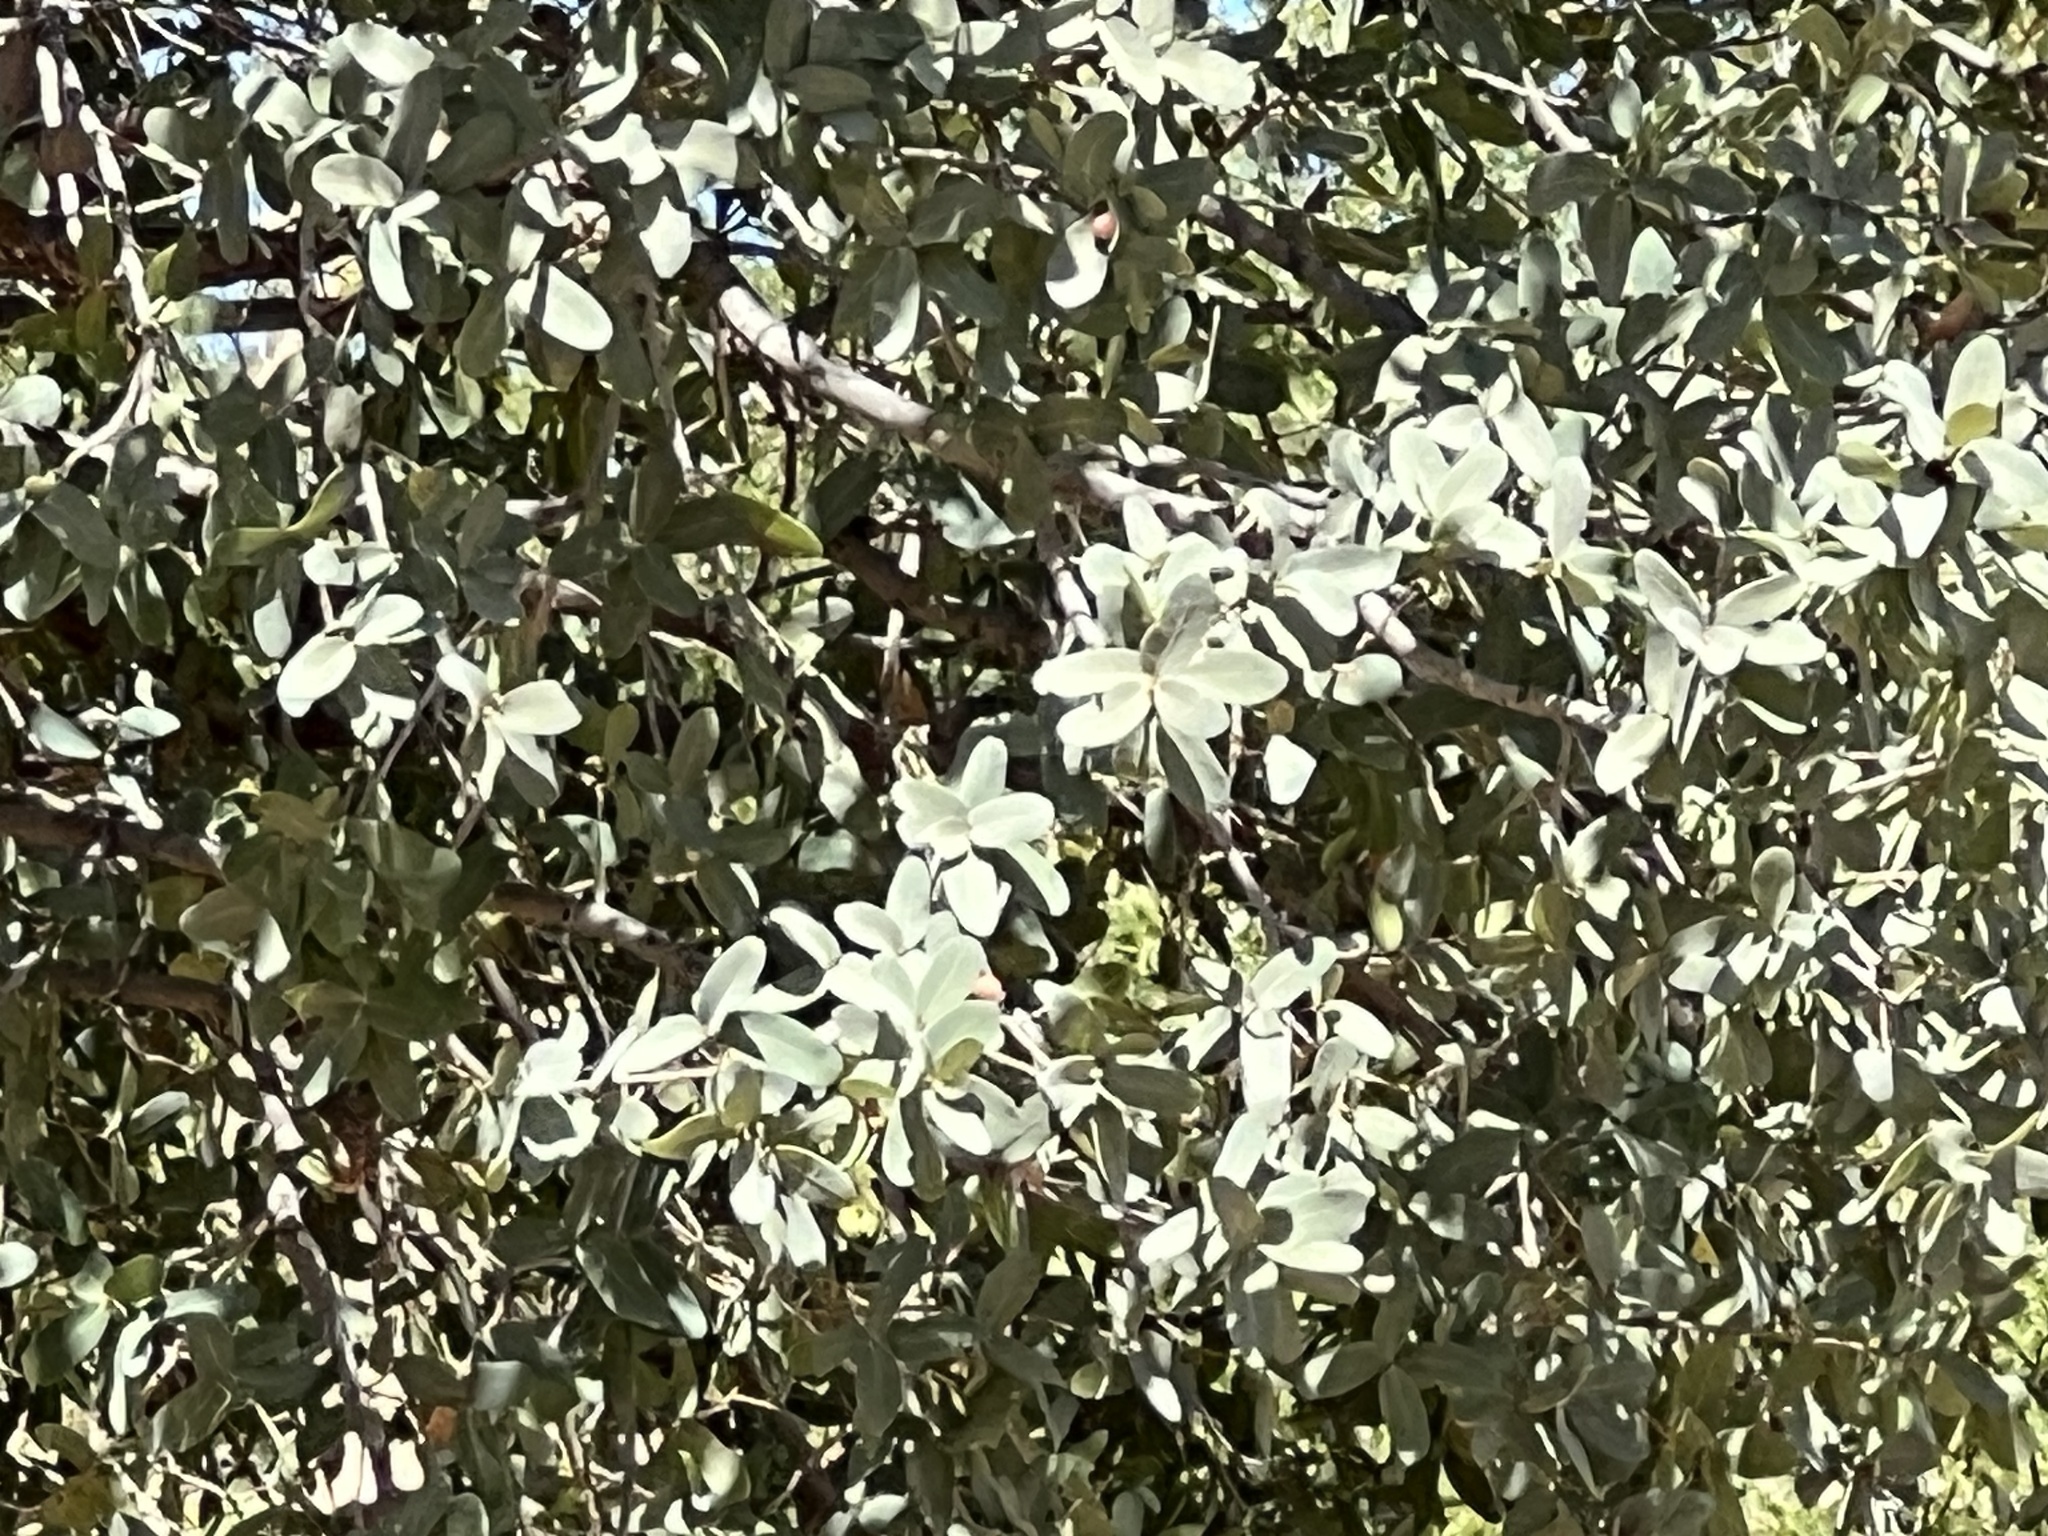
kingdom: Plantae
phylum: Tracheophyta
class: Magnoliopsida
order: Fagales
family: Fagaceae
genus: Quercus
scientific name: Quercus oblongifolia
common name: Mexican blue oak
